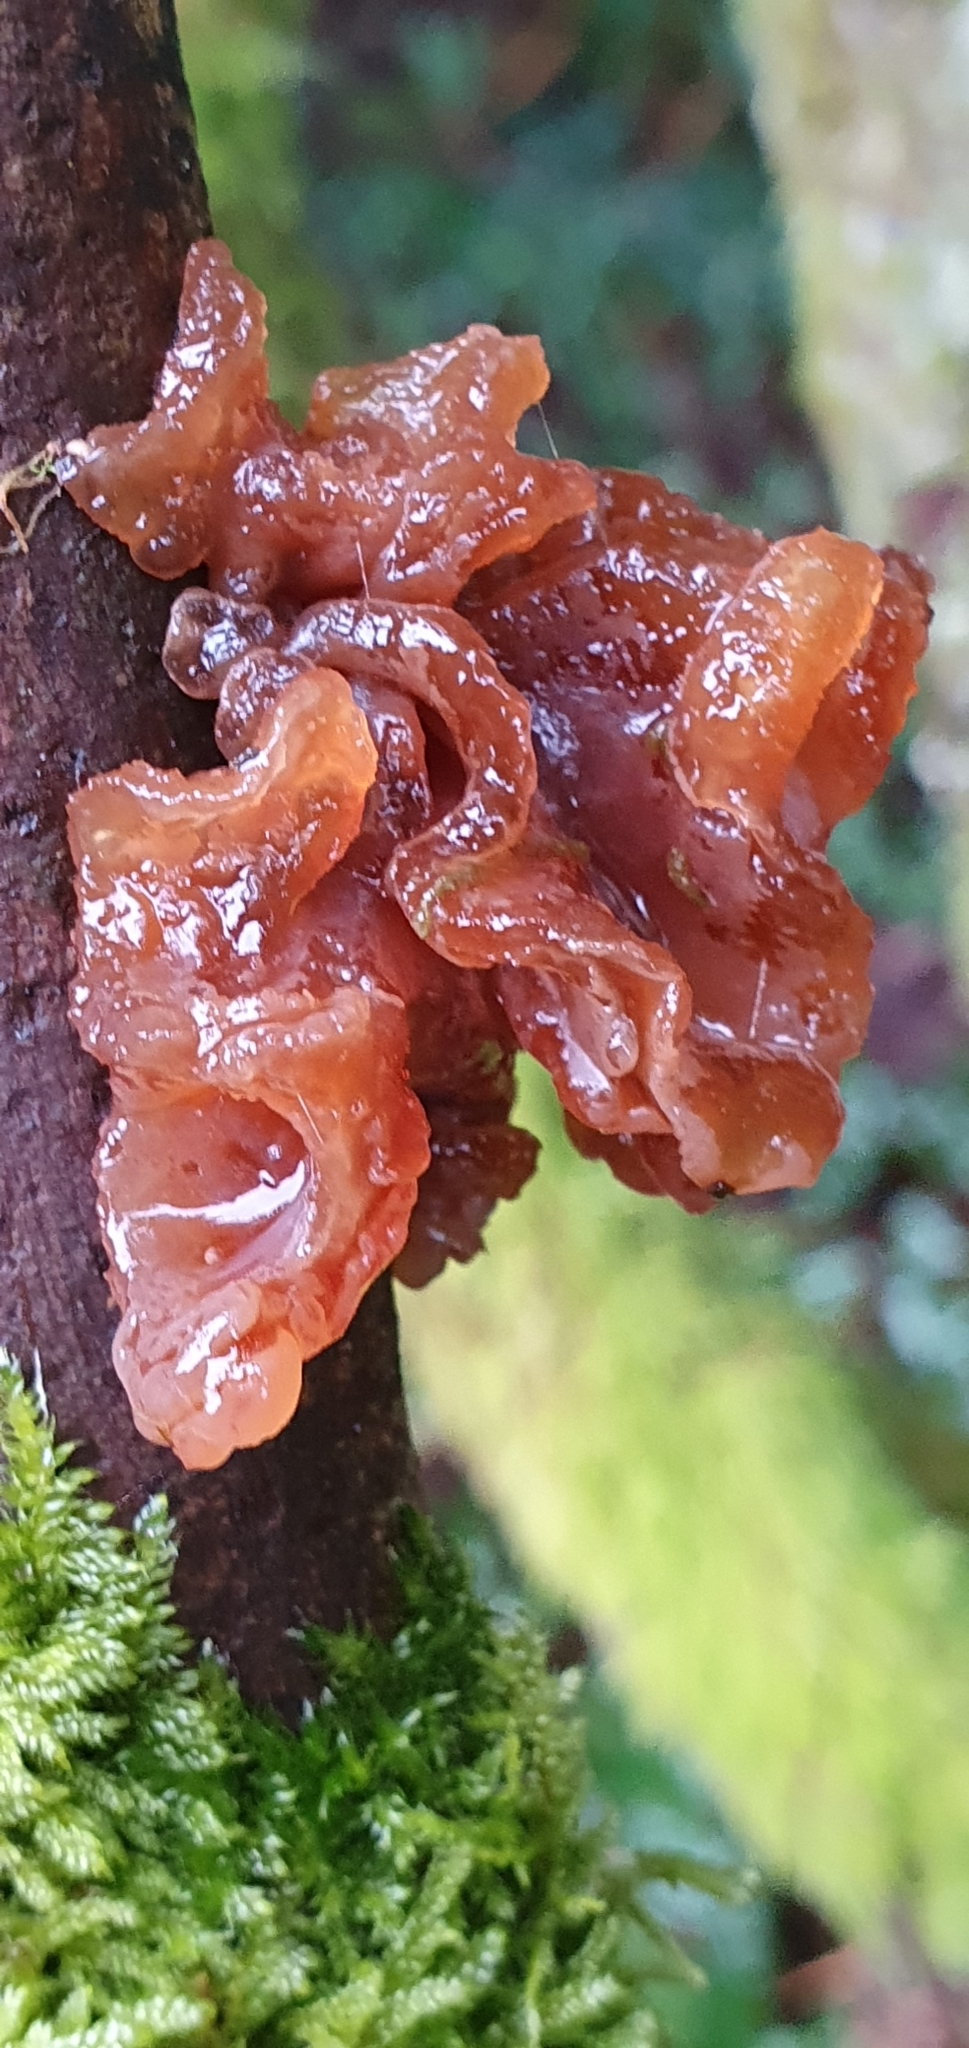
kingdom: Fungi
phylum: Basidiomycota
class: Tremellomycetes
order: Tremellales
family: Tremellaceae
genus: Phaeotremella
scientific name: Phaeotremella frondosa
